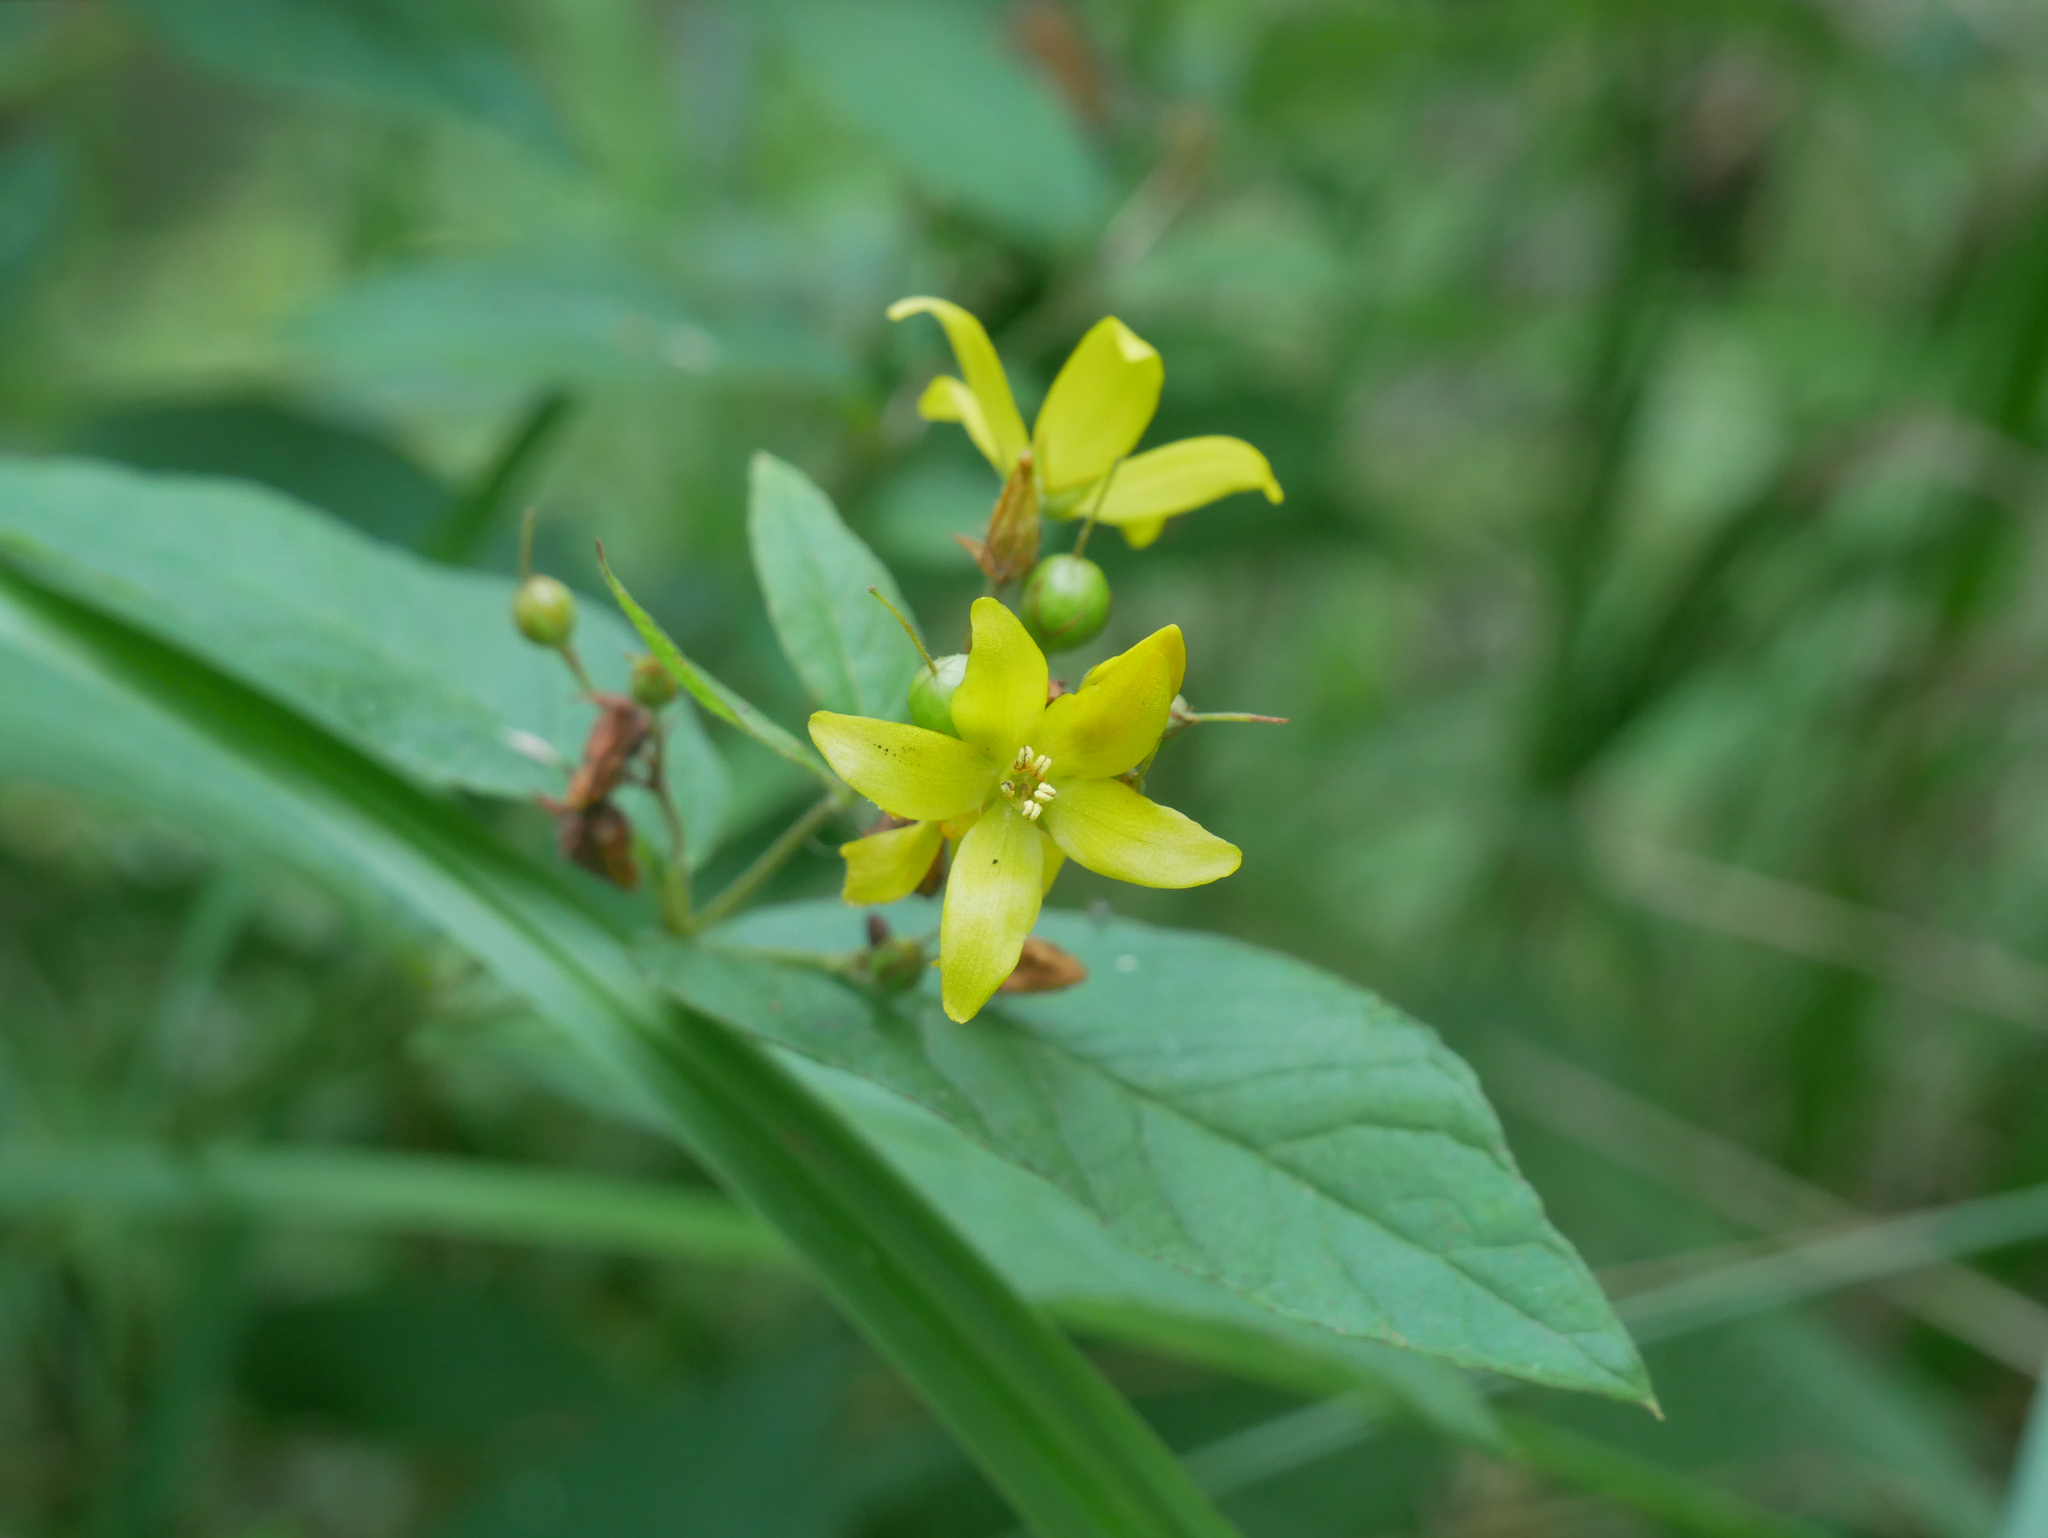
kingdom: Plantae
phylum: Tracheophyta
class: Magnoliopsida
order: Ericales
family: Primulaceae
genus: Lysimachia
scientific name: Lysimachia vulgaris
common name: Yellow loosestrife
